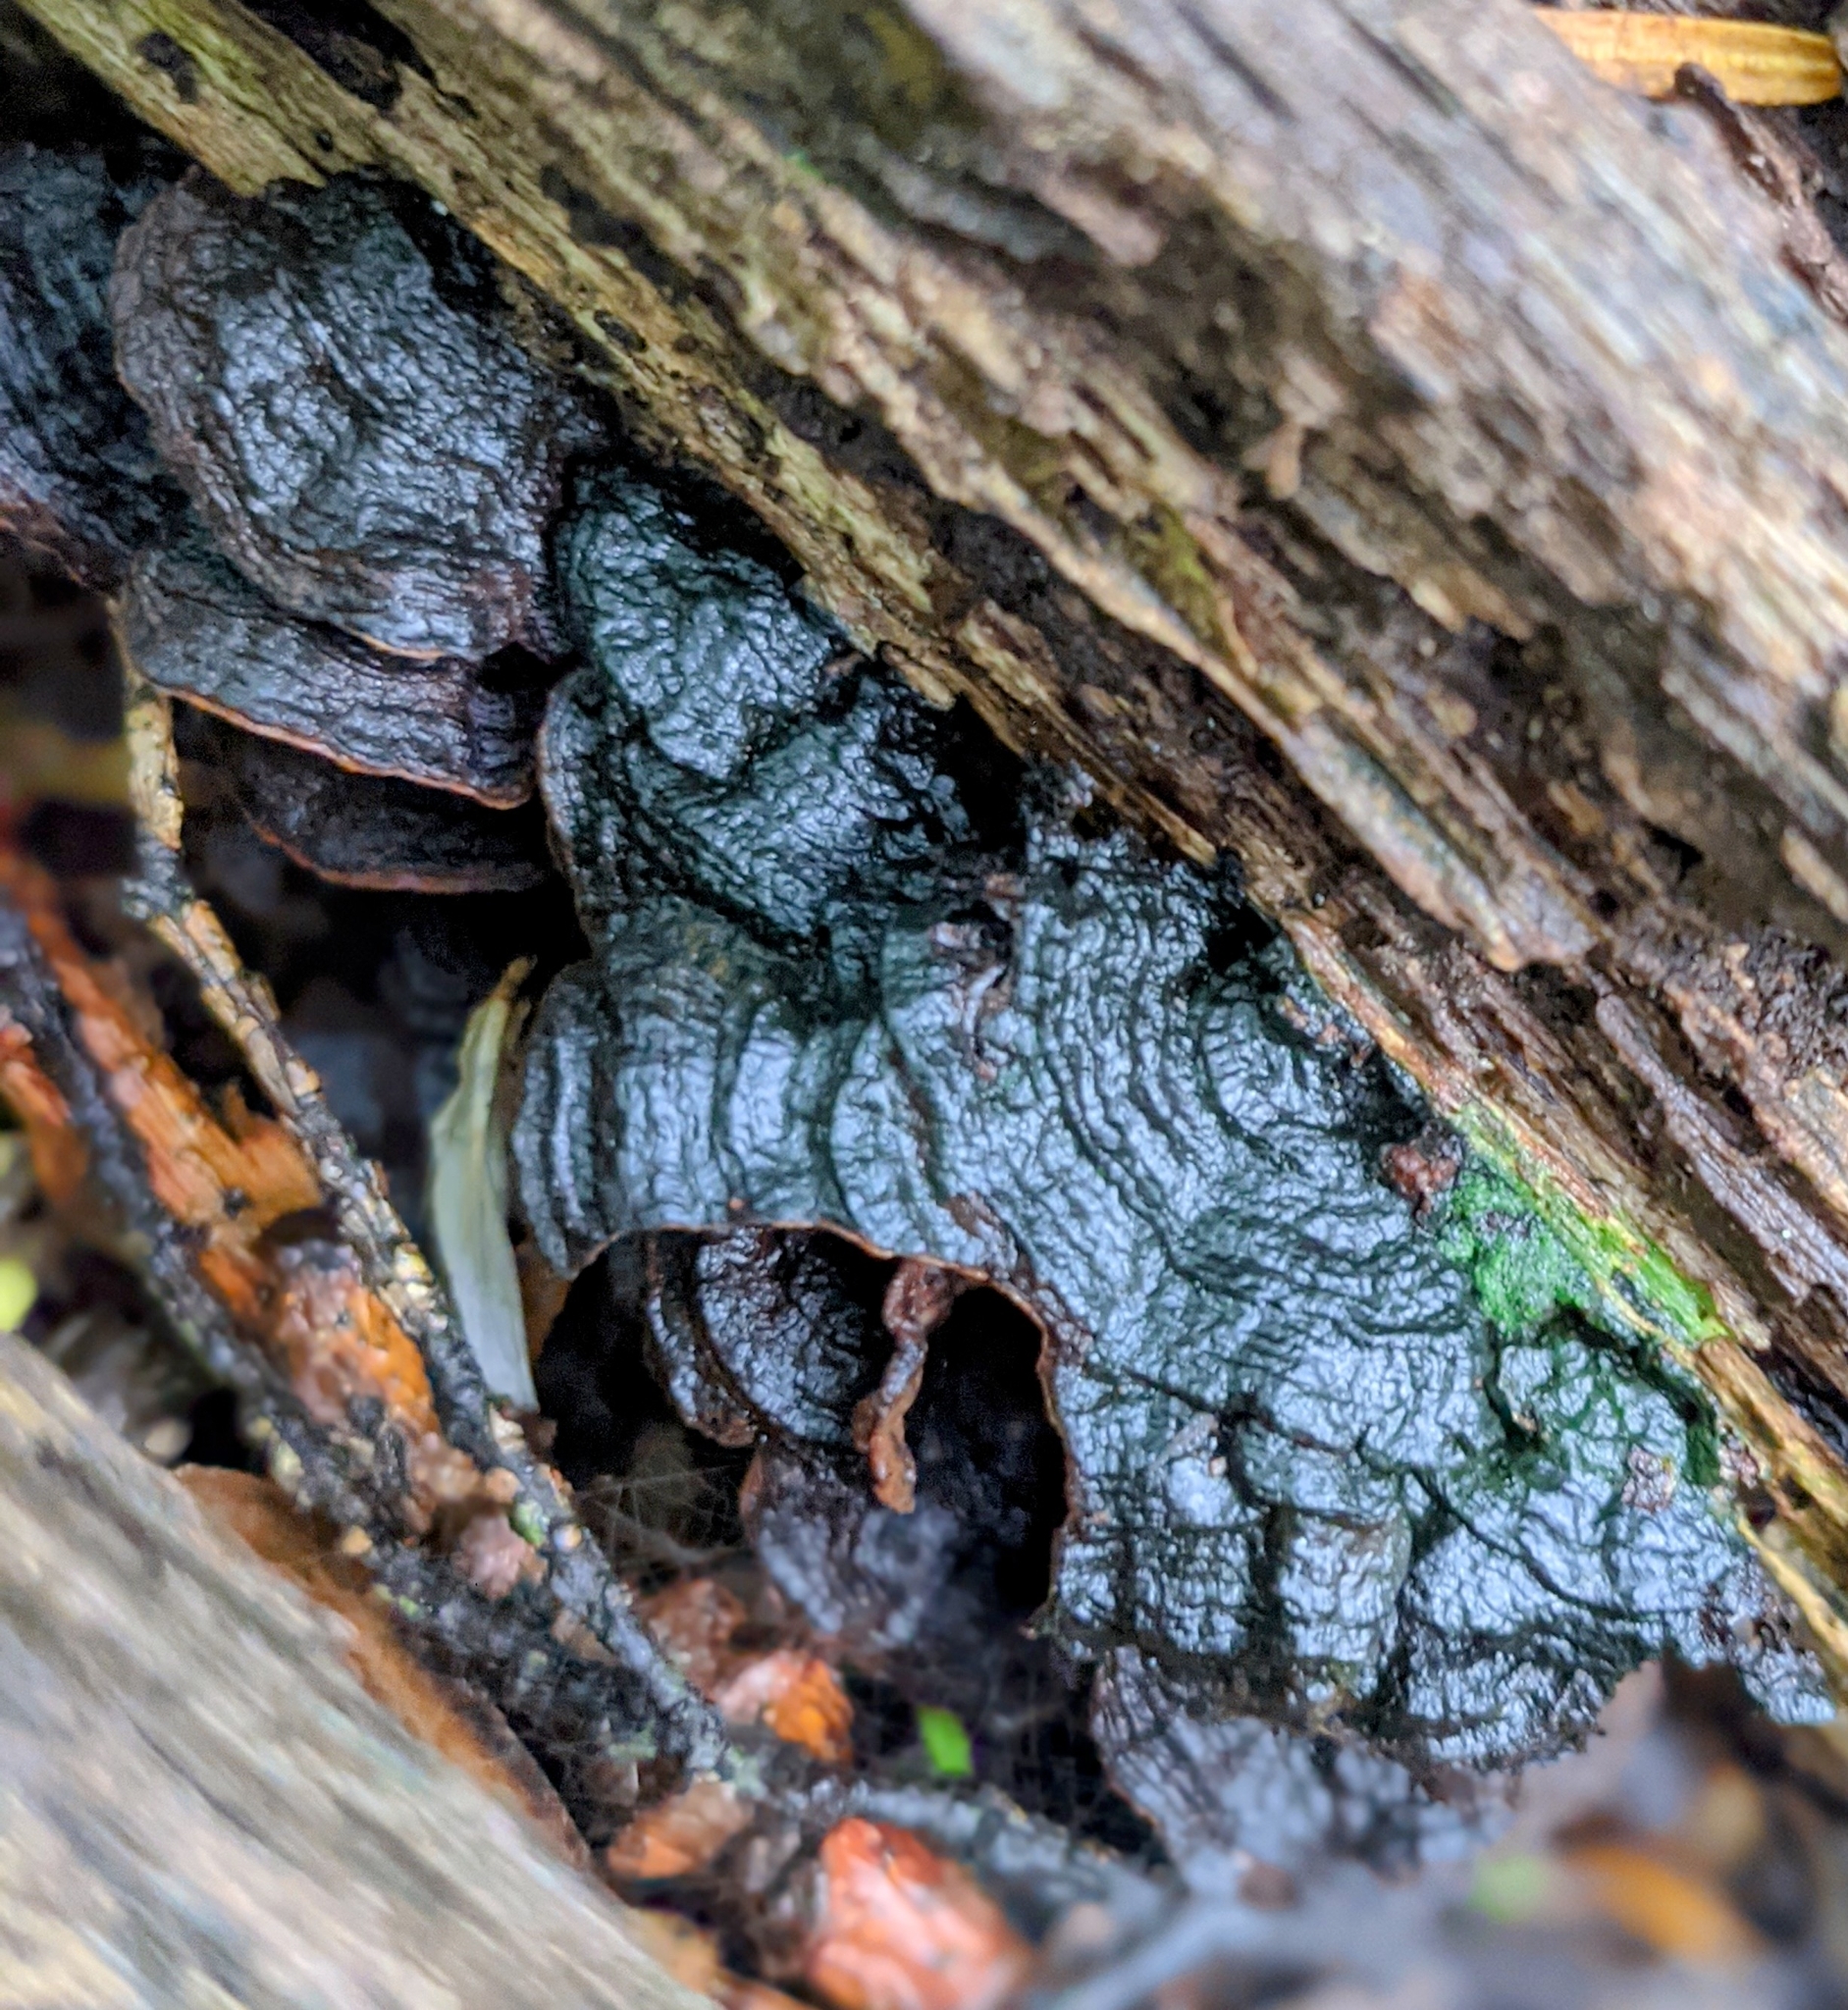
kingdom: Fungi
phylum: Basidiomycota
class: Agaricomycetes
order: Hymenochaetales
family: Hymenochaetaceae
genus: Hymenochaete
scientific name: Hymenochaete rubiginosa
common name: Oak curtain crust
